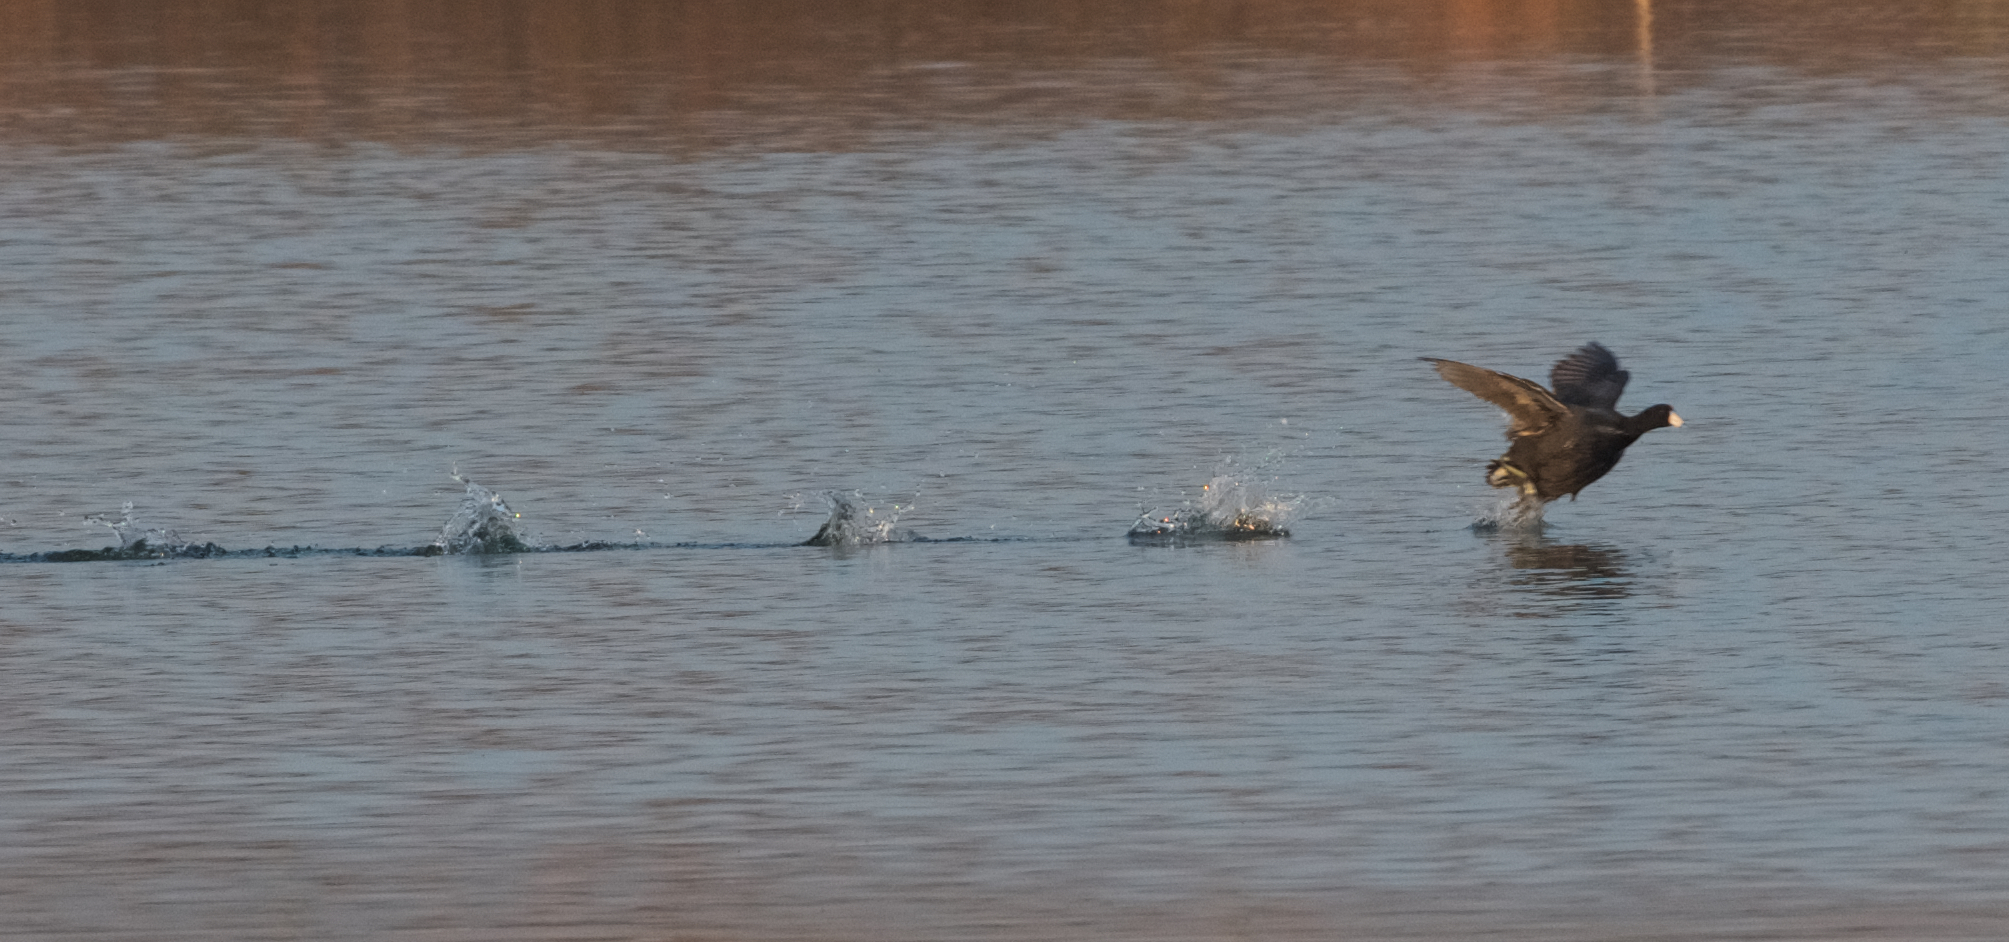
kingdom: Animalia
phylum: Chordata
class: Aves
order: Gruiformes
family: Rallidae
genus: Fulica
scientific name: Fulica americana
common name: American coot
